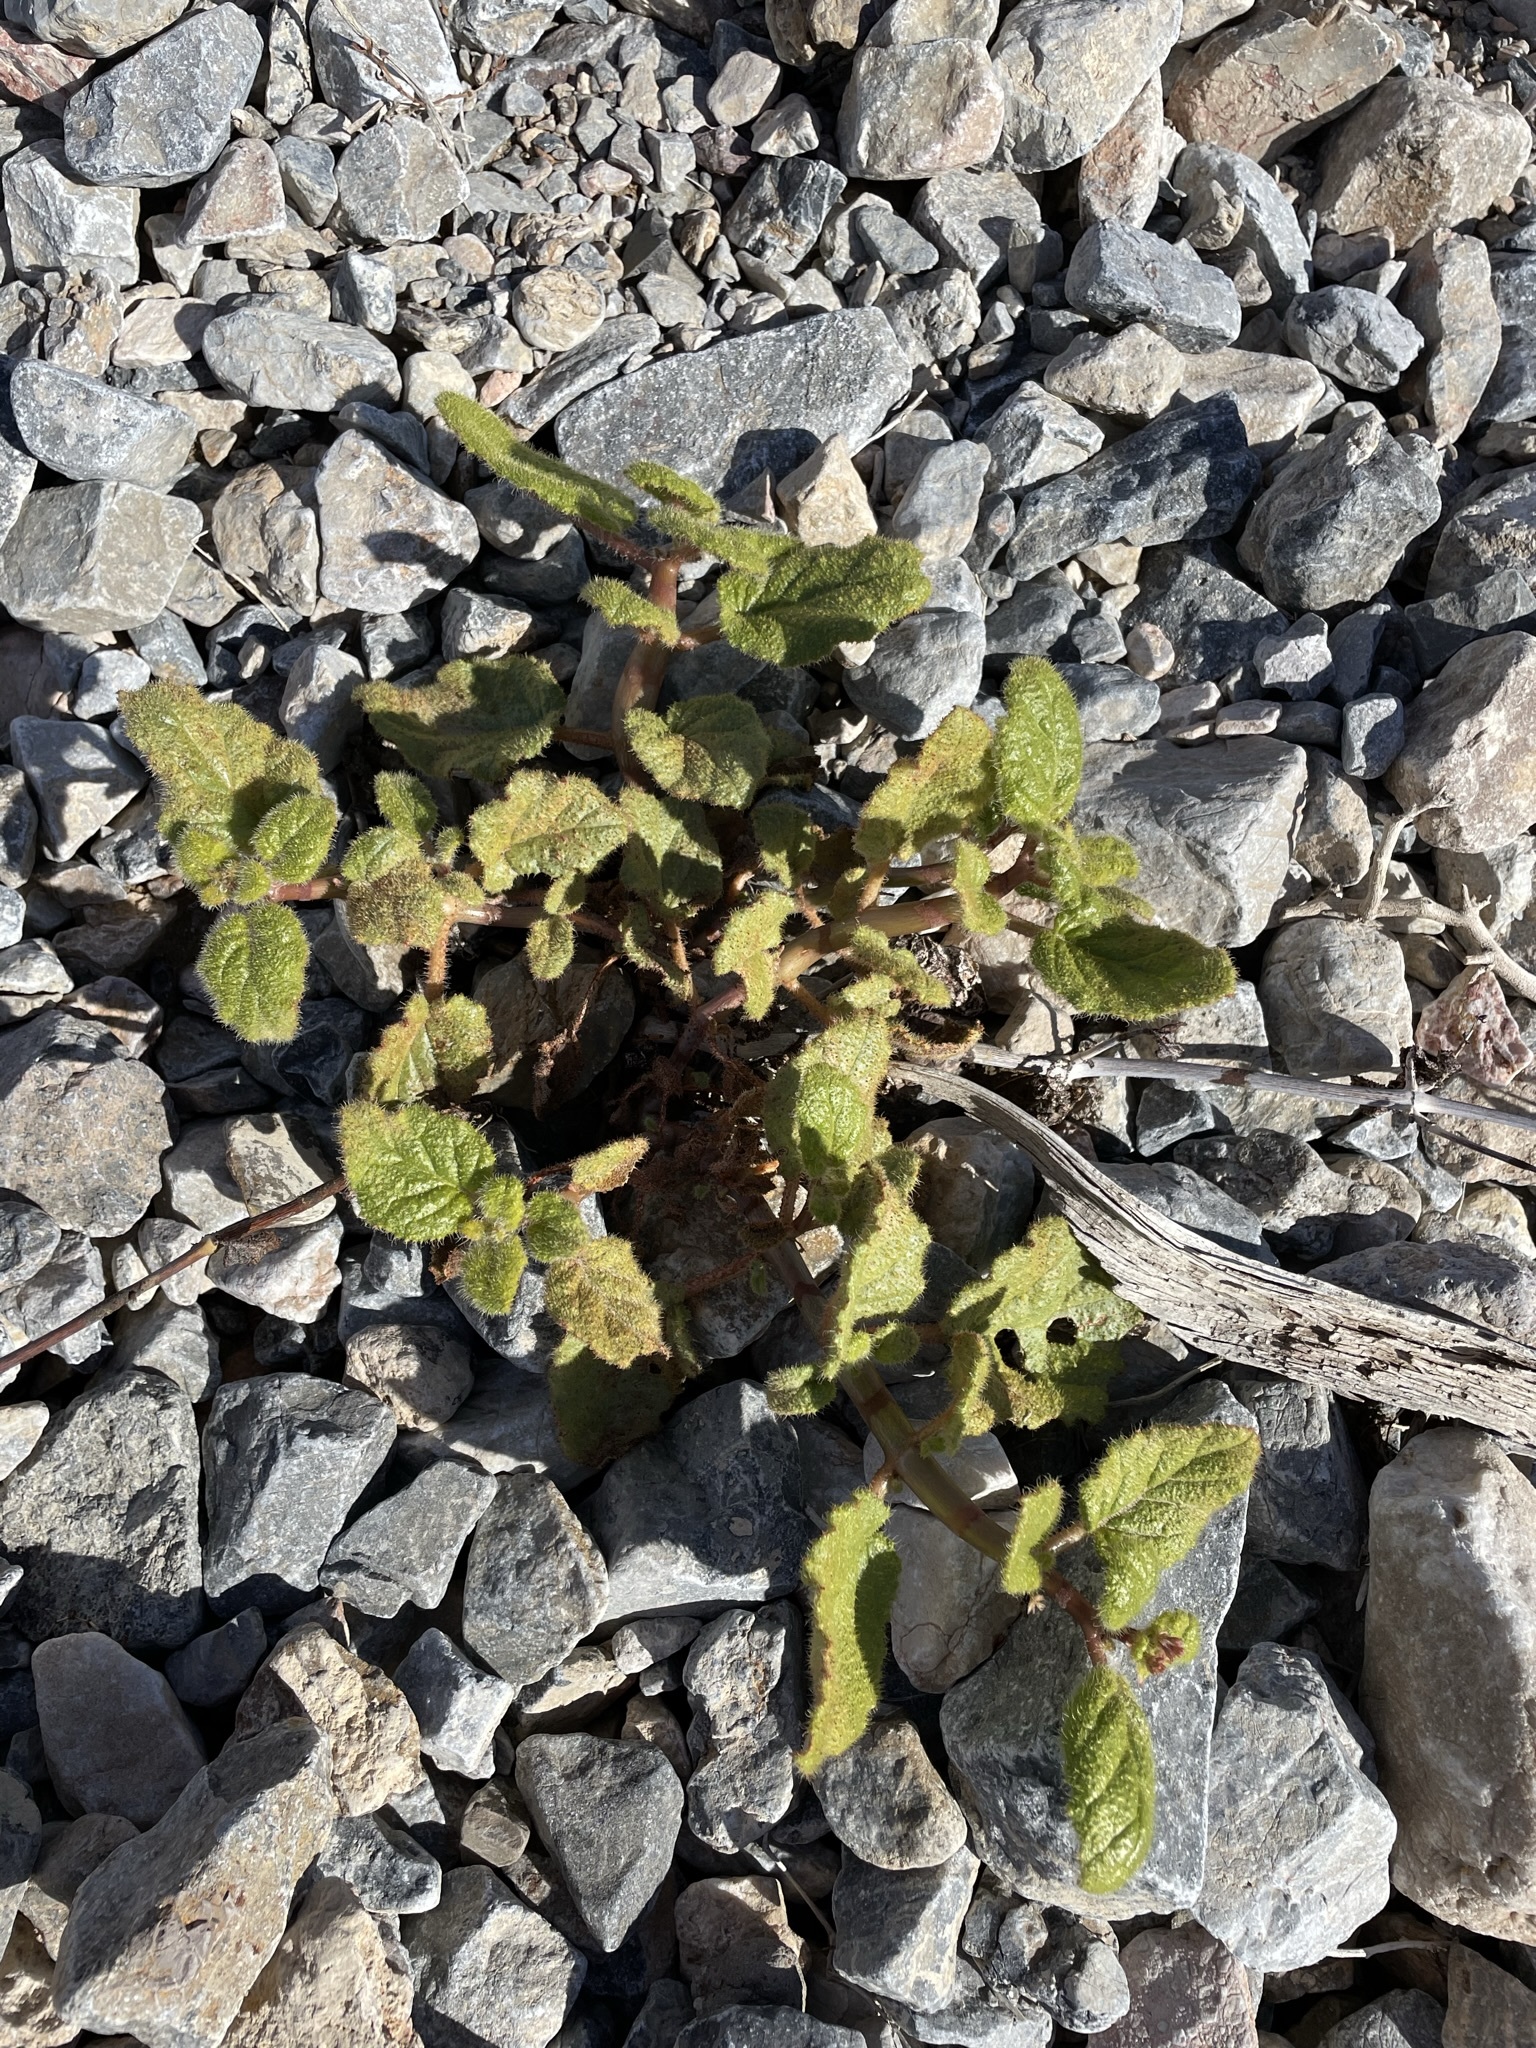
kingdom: Plantae
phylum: Tracheophyta
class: Magnoliopsida
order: Caryophyllales
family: Nyctaginaceae
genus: Anulocaulis
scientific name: Anulocaulis annulatus
